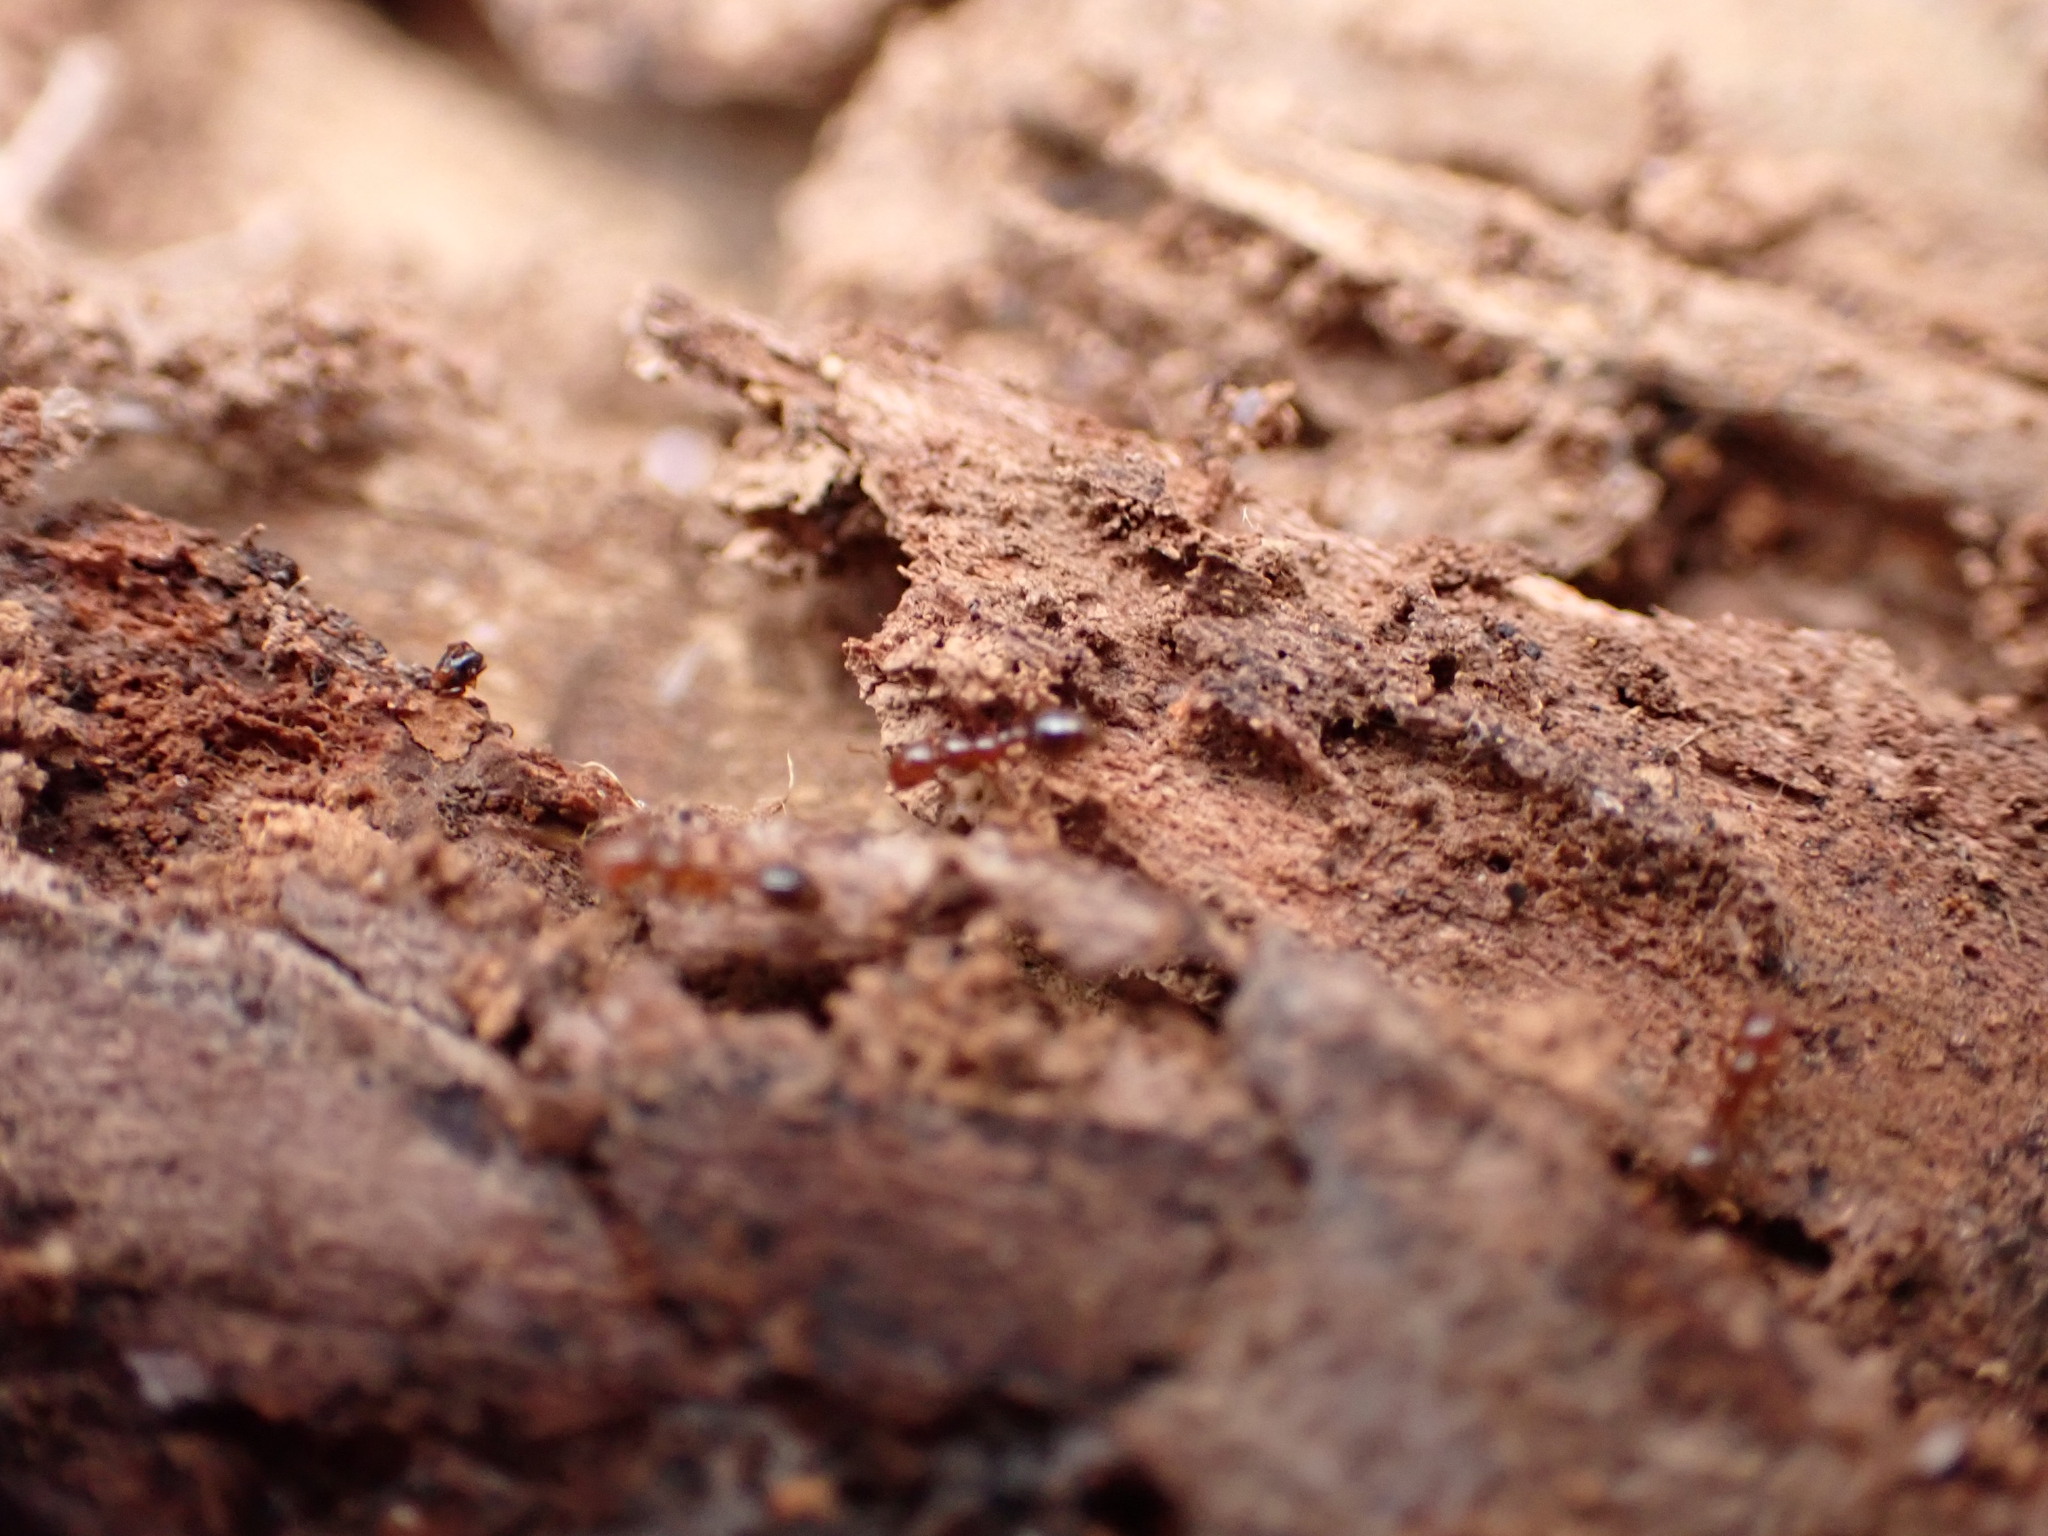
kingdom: Animalia
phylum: Arthropoda
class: Insecta
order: Hymenoptera
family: Formicidae
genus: Solenopsis
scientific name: Solenopsis invicta
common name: Red imported fire ant
